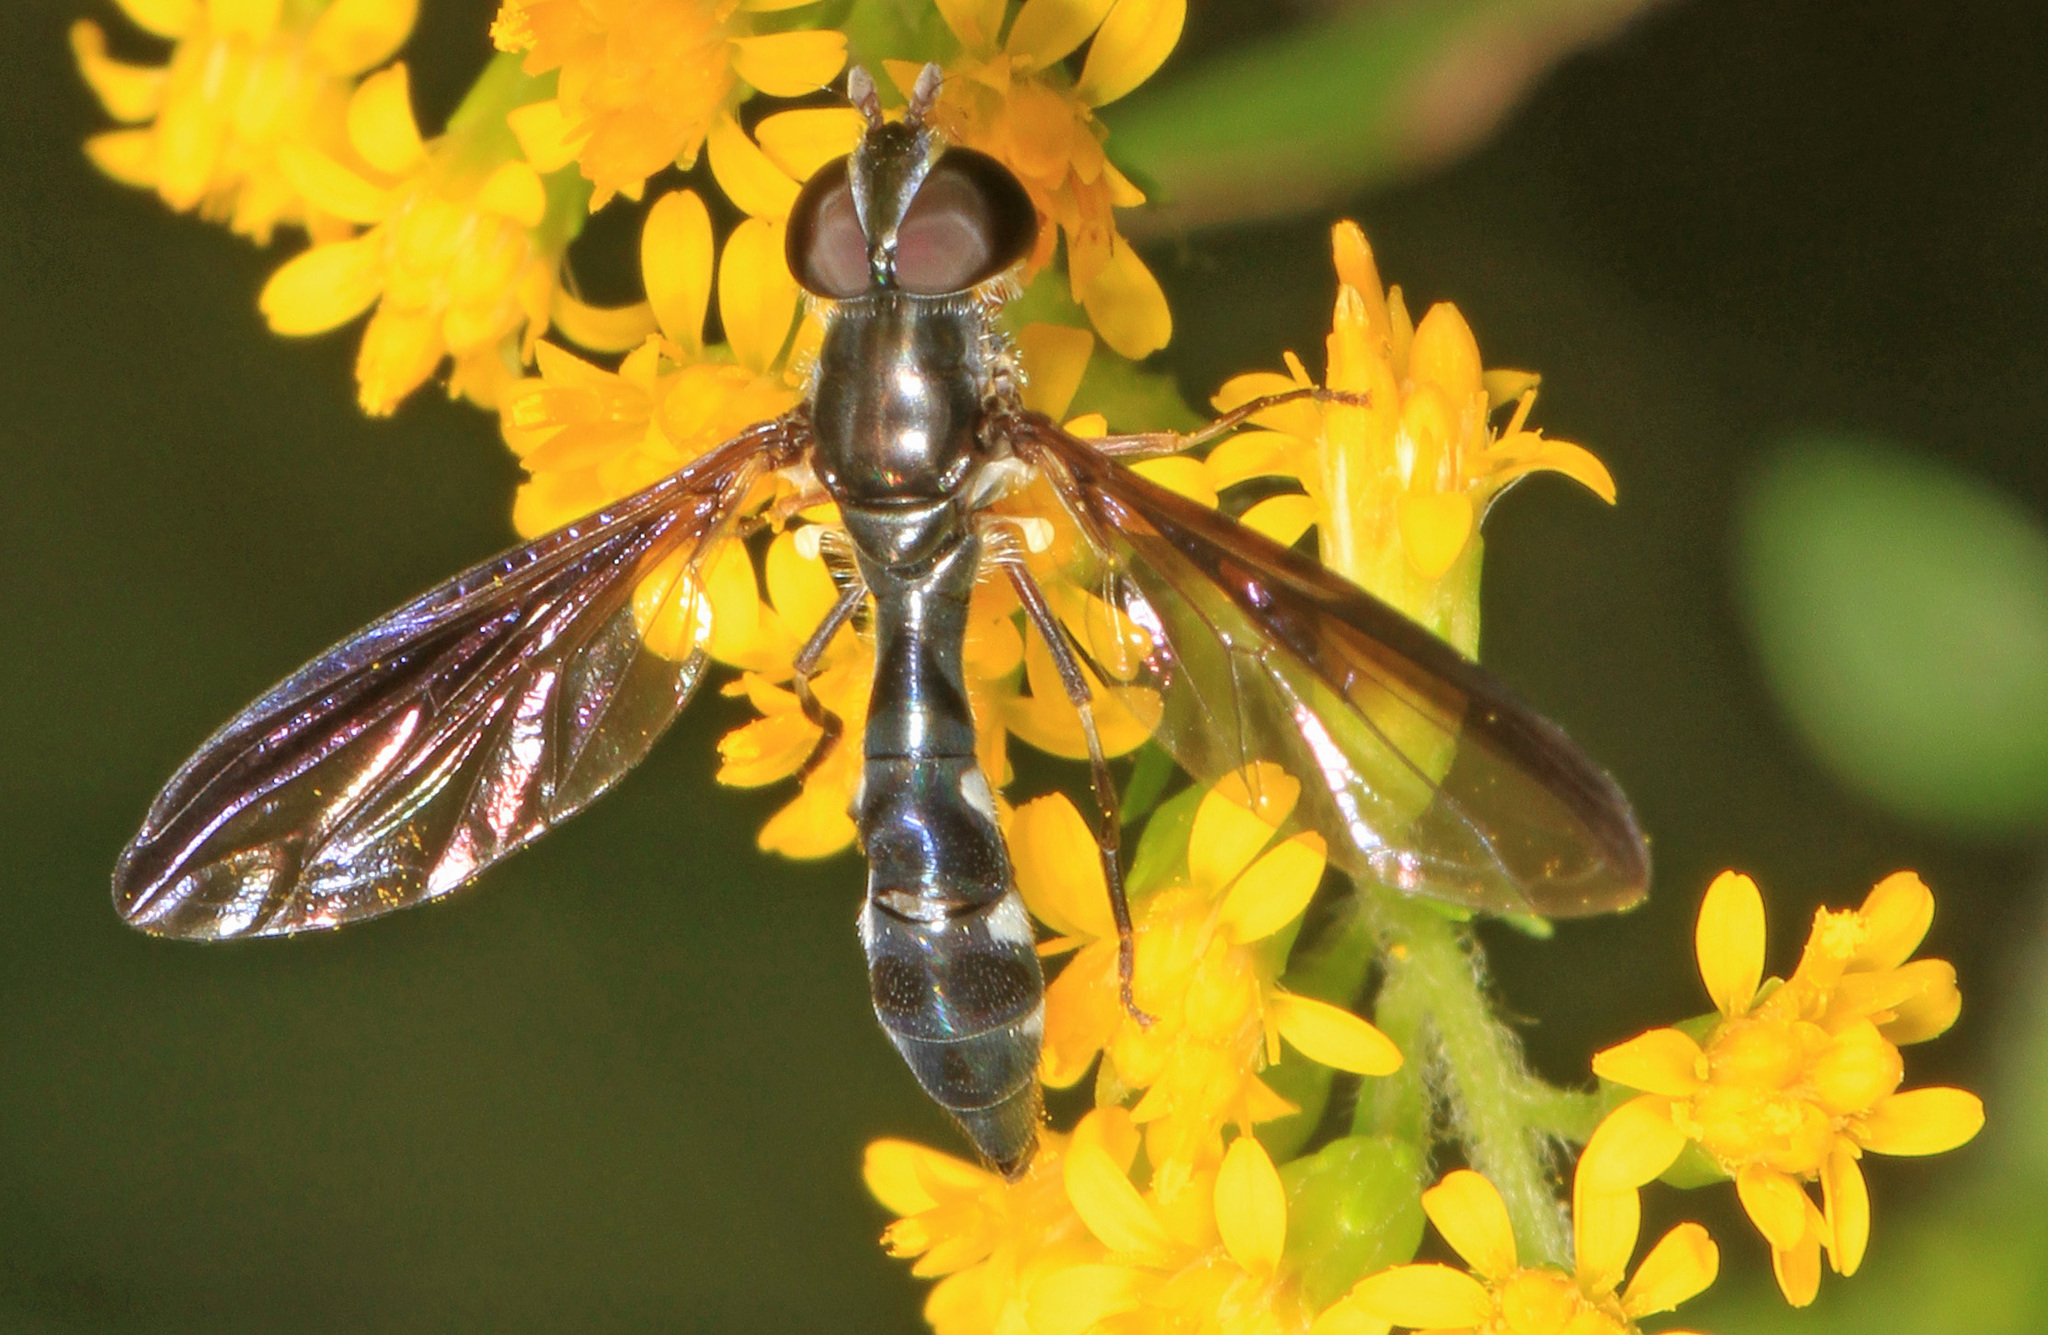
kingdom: Animalia
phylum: Arthropoda
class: Insecta
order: Diptera
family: Syrphidae
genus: Ocyptamus
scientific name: Ocyptamus costatus
